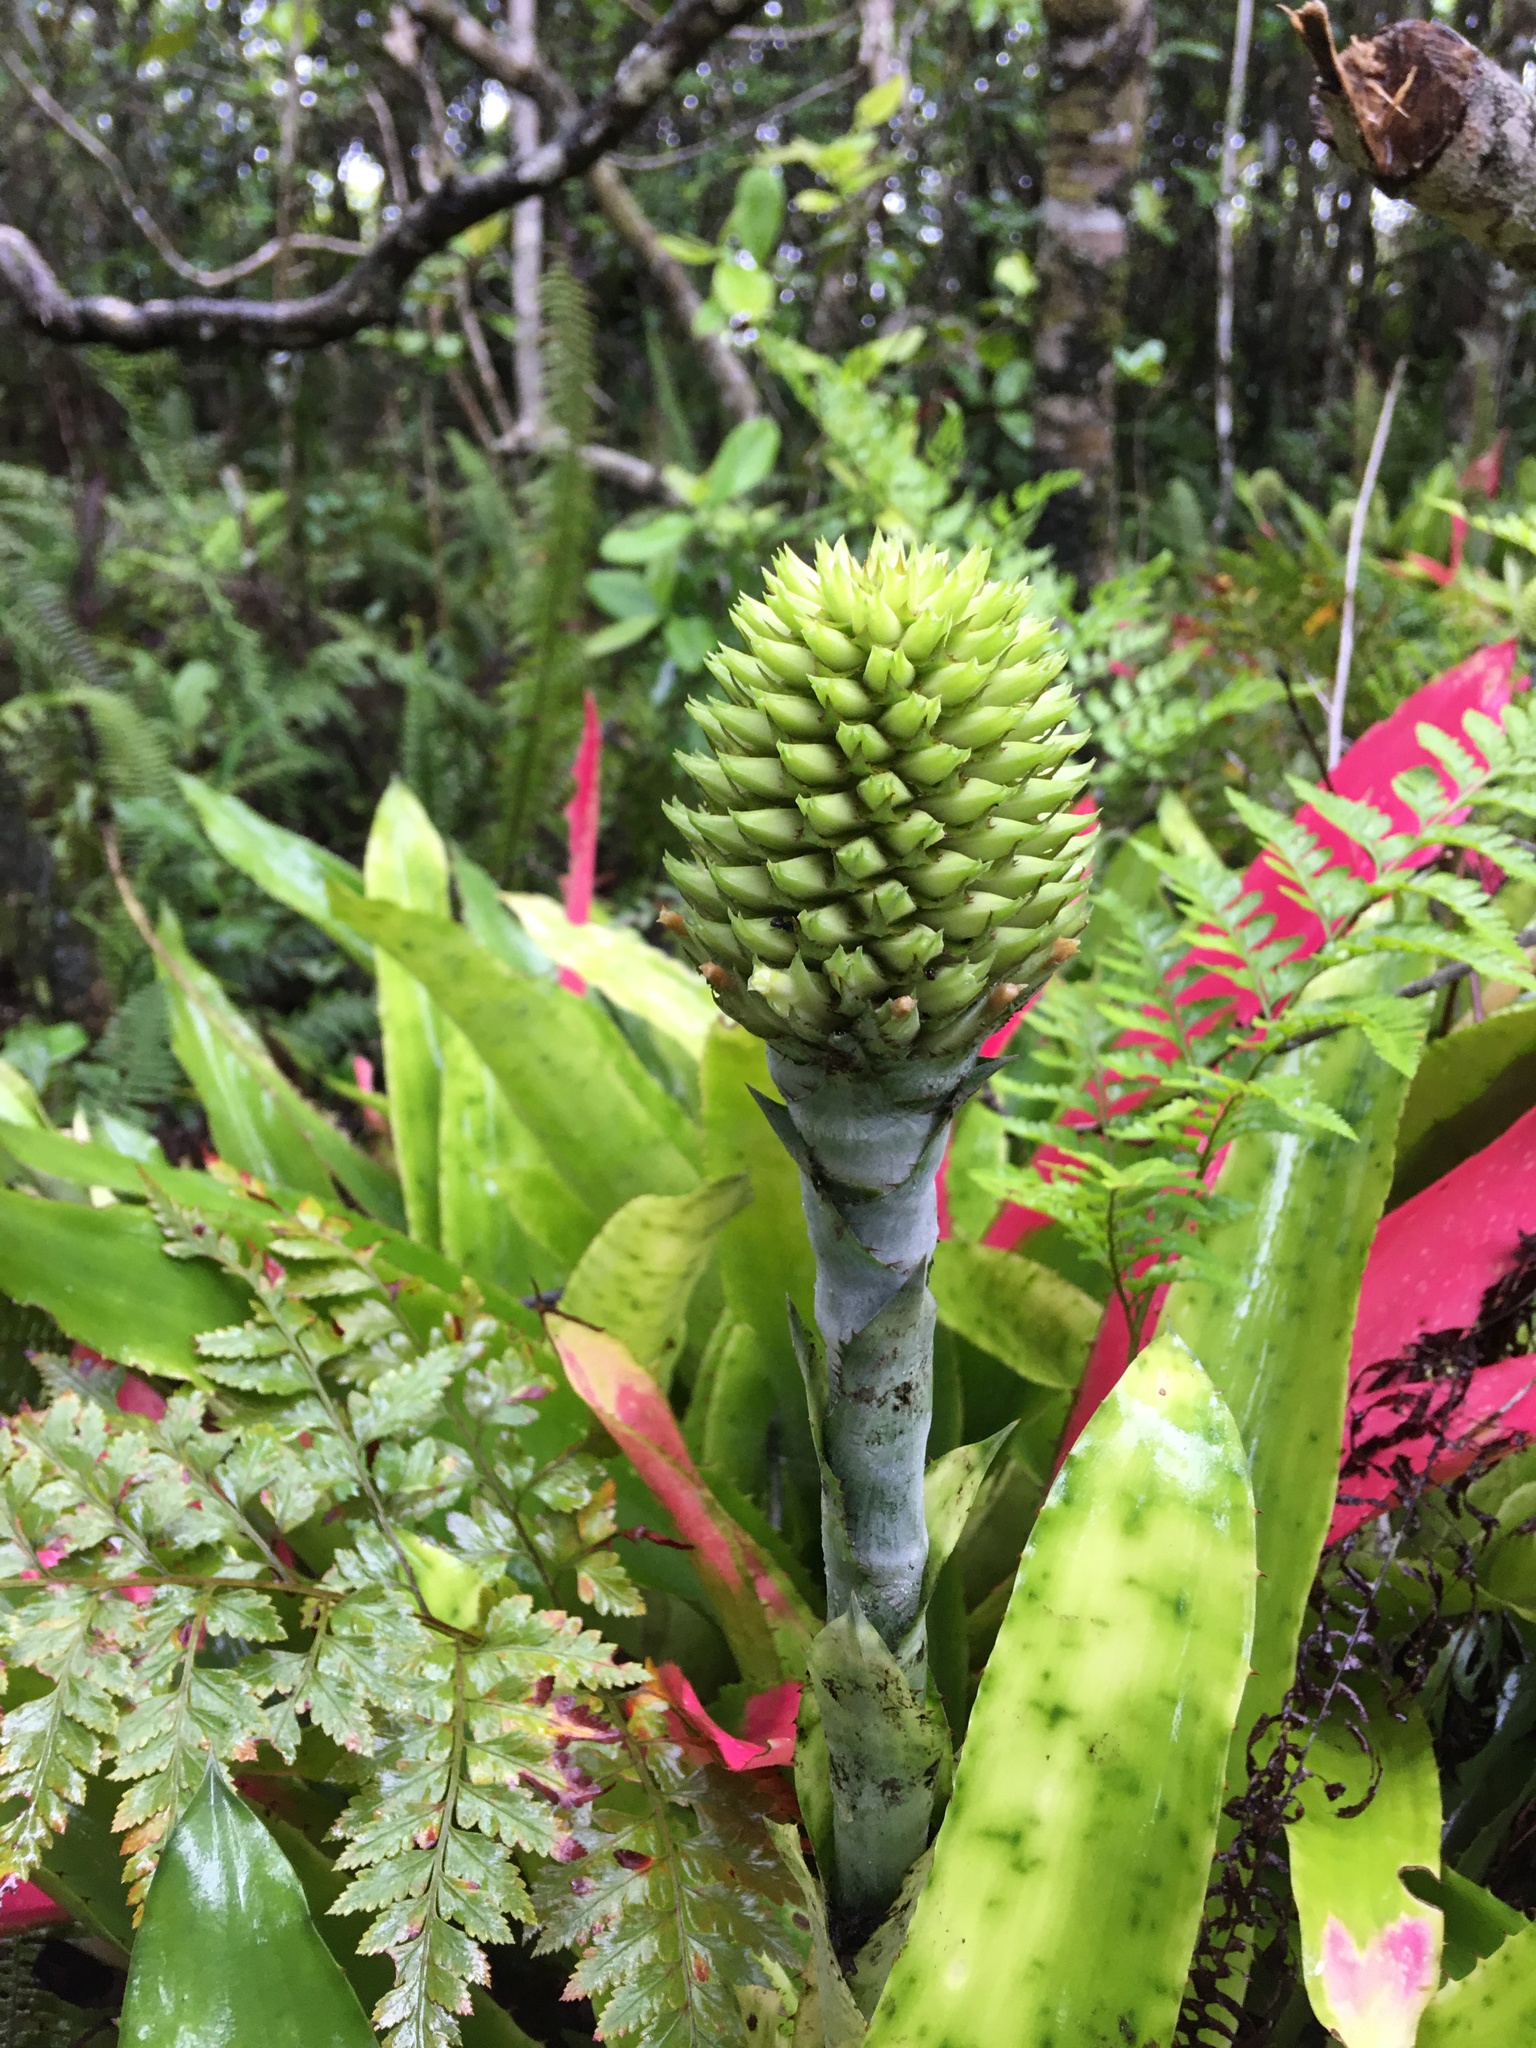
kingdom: Plantae
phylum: Tracheophyta
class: Liliopsida
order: Poales
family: Bromeliaceae
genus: Aechmea
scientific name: Aechmea pectinata
